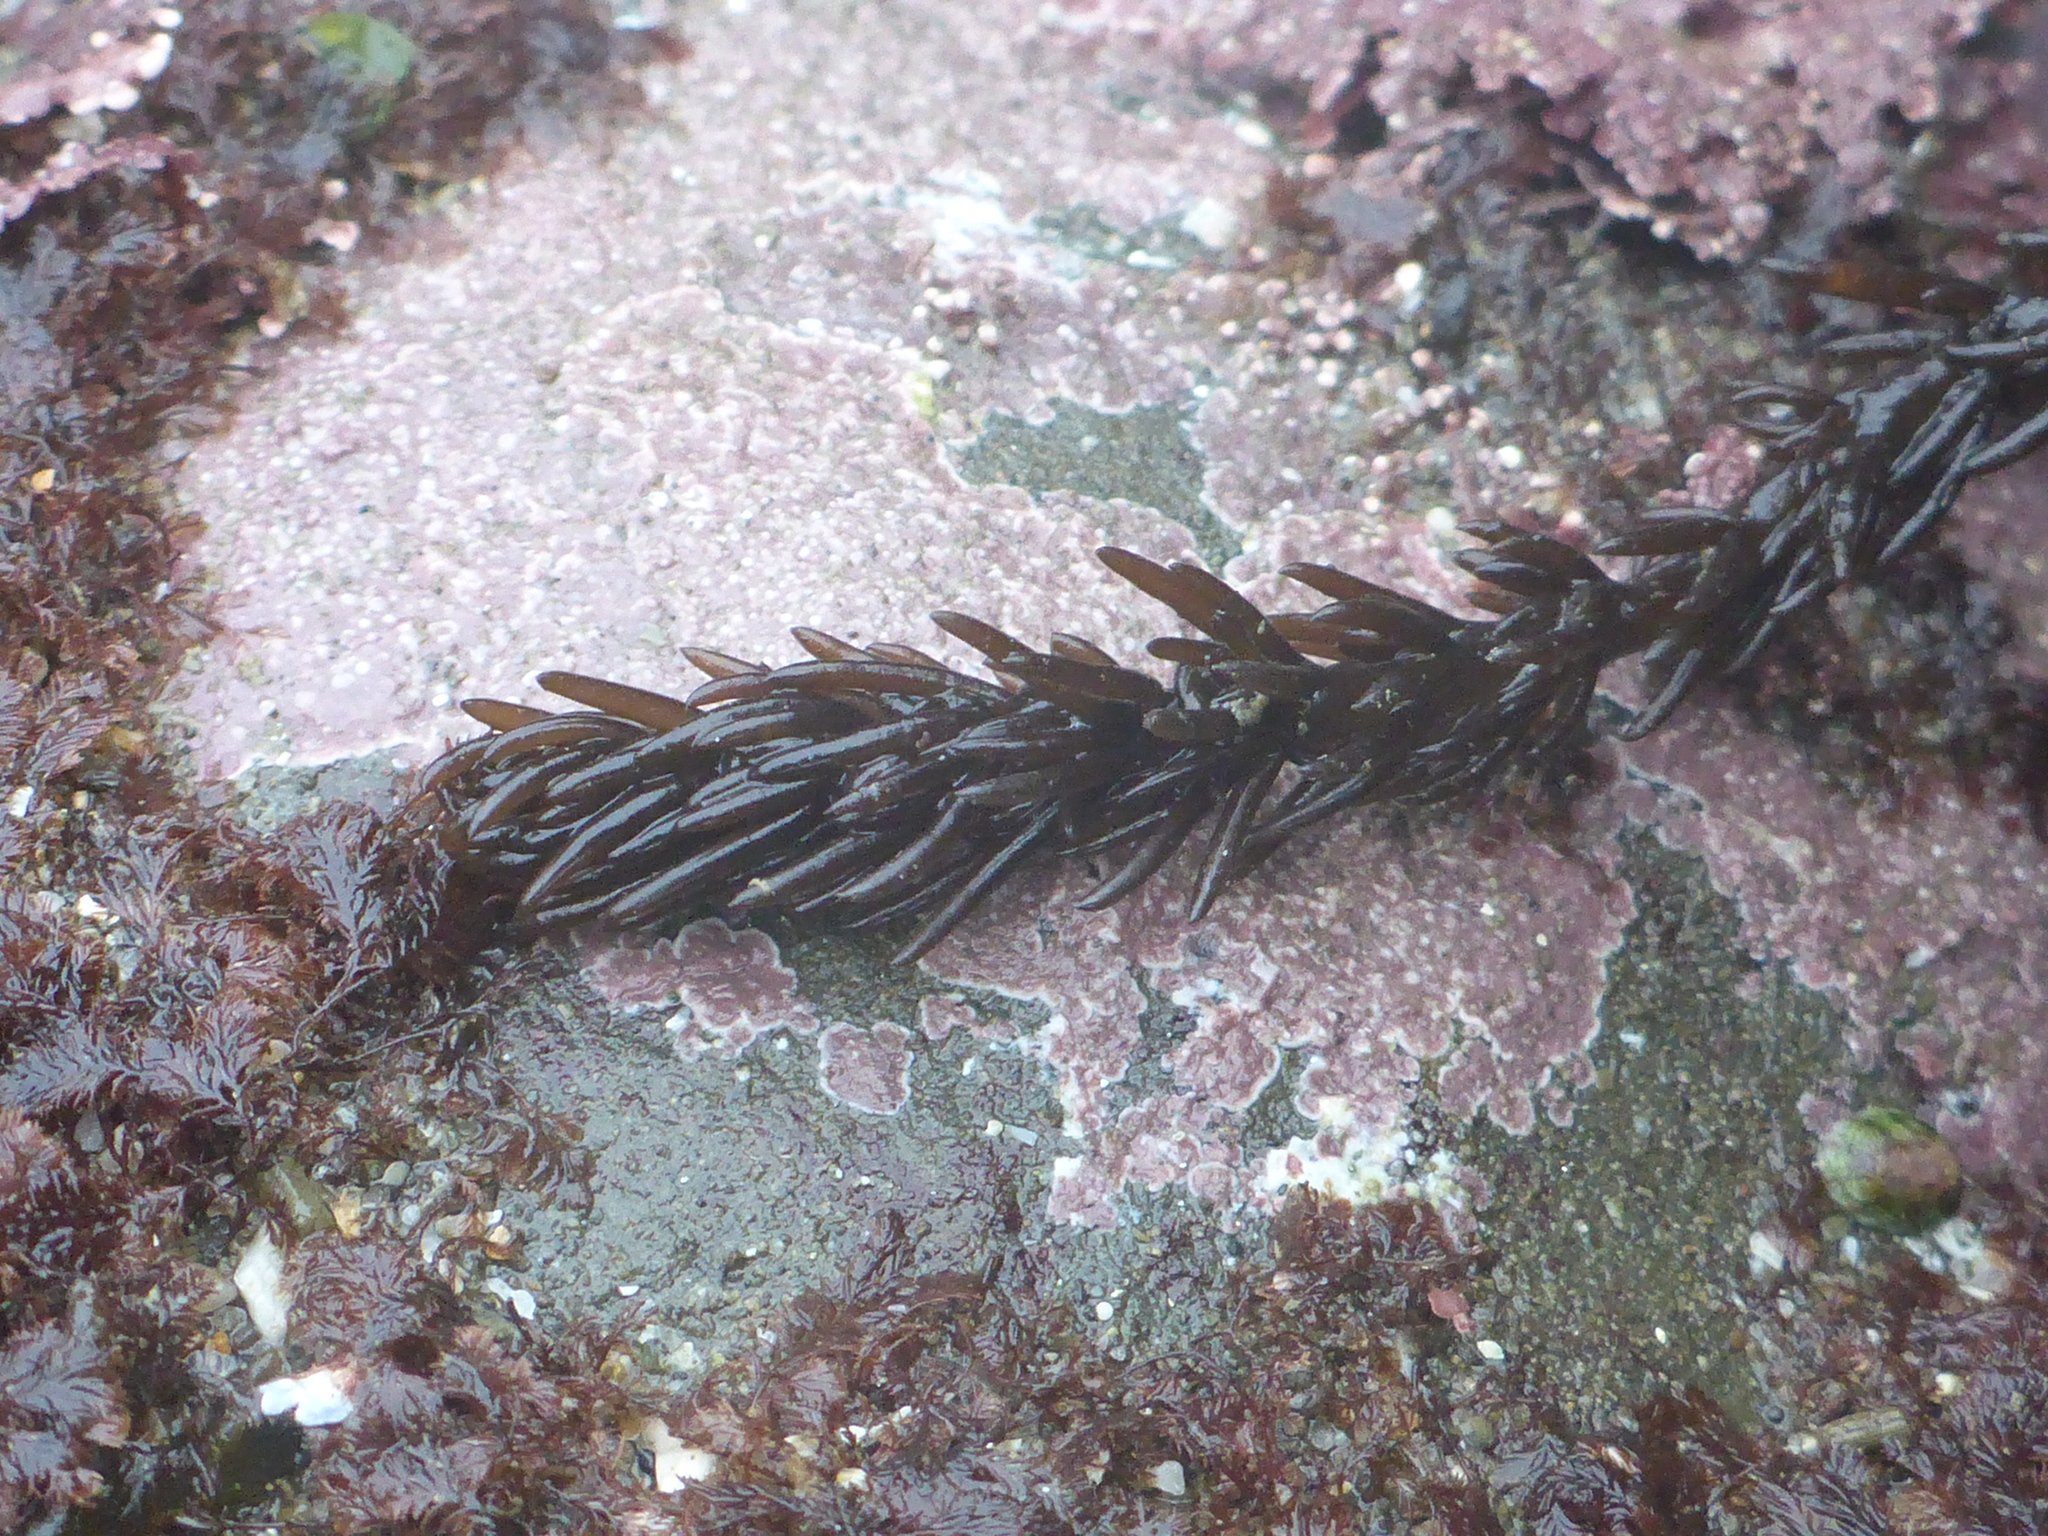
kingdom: Plantae
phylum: Rhodophyta
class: Florideophyceae
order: Ceramiales
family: Rhodomelaceae
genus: Neorhodomela
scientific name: Neorhodomela larix
